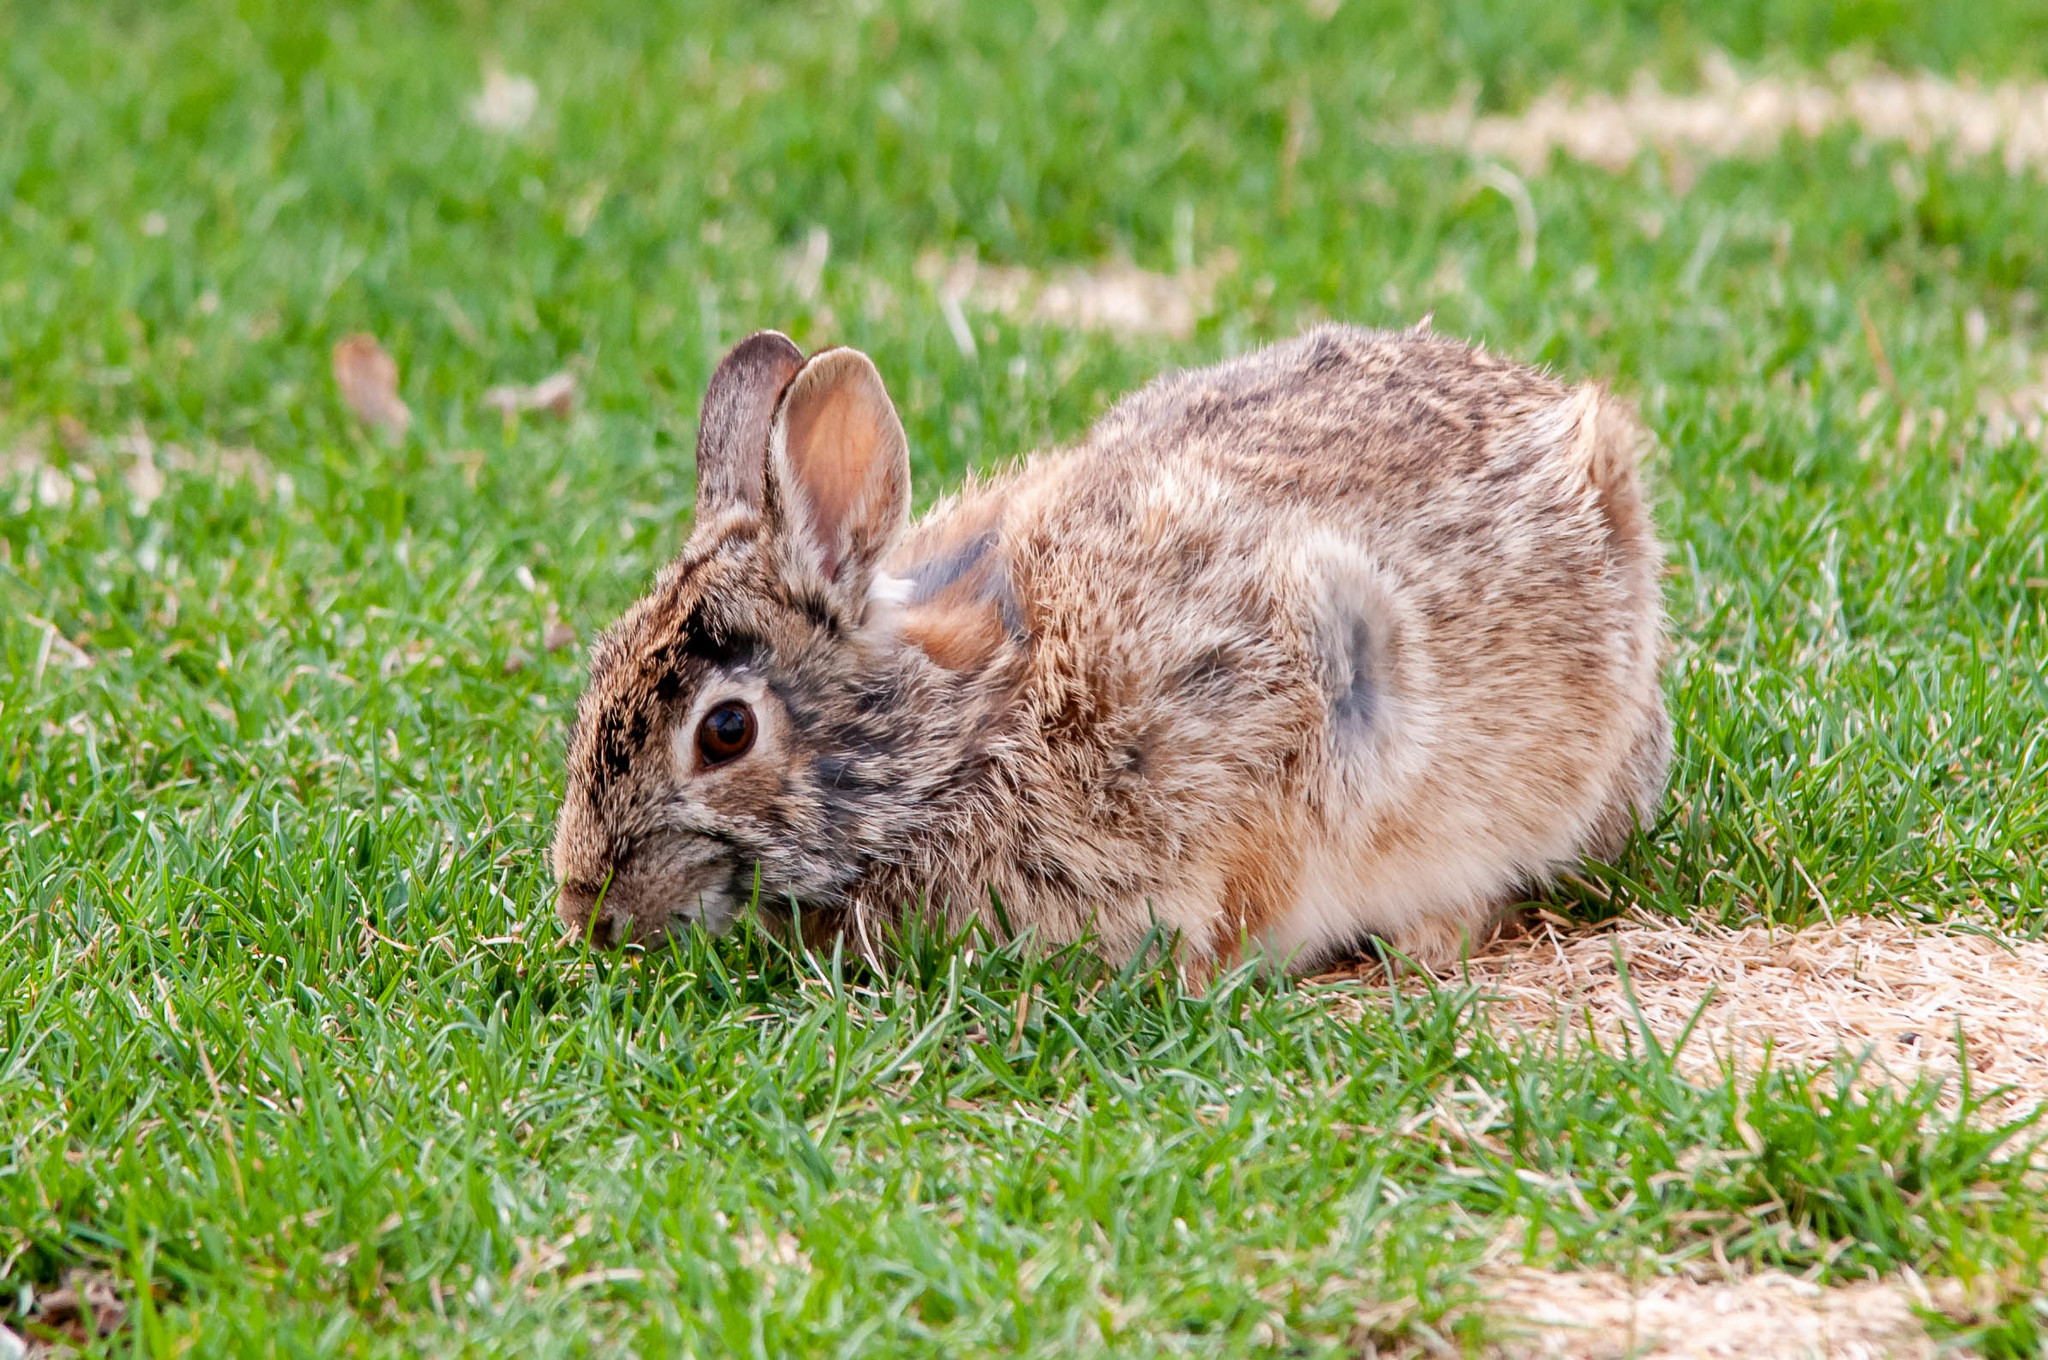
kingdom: Animalia
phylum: Chordata
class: Mammalia
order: Lagomorpha
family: Leporidae
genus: Sylvilagus
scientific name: Sylvilagus floridanus
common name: Eastern cottontail
